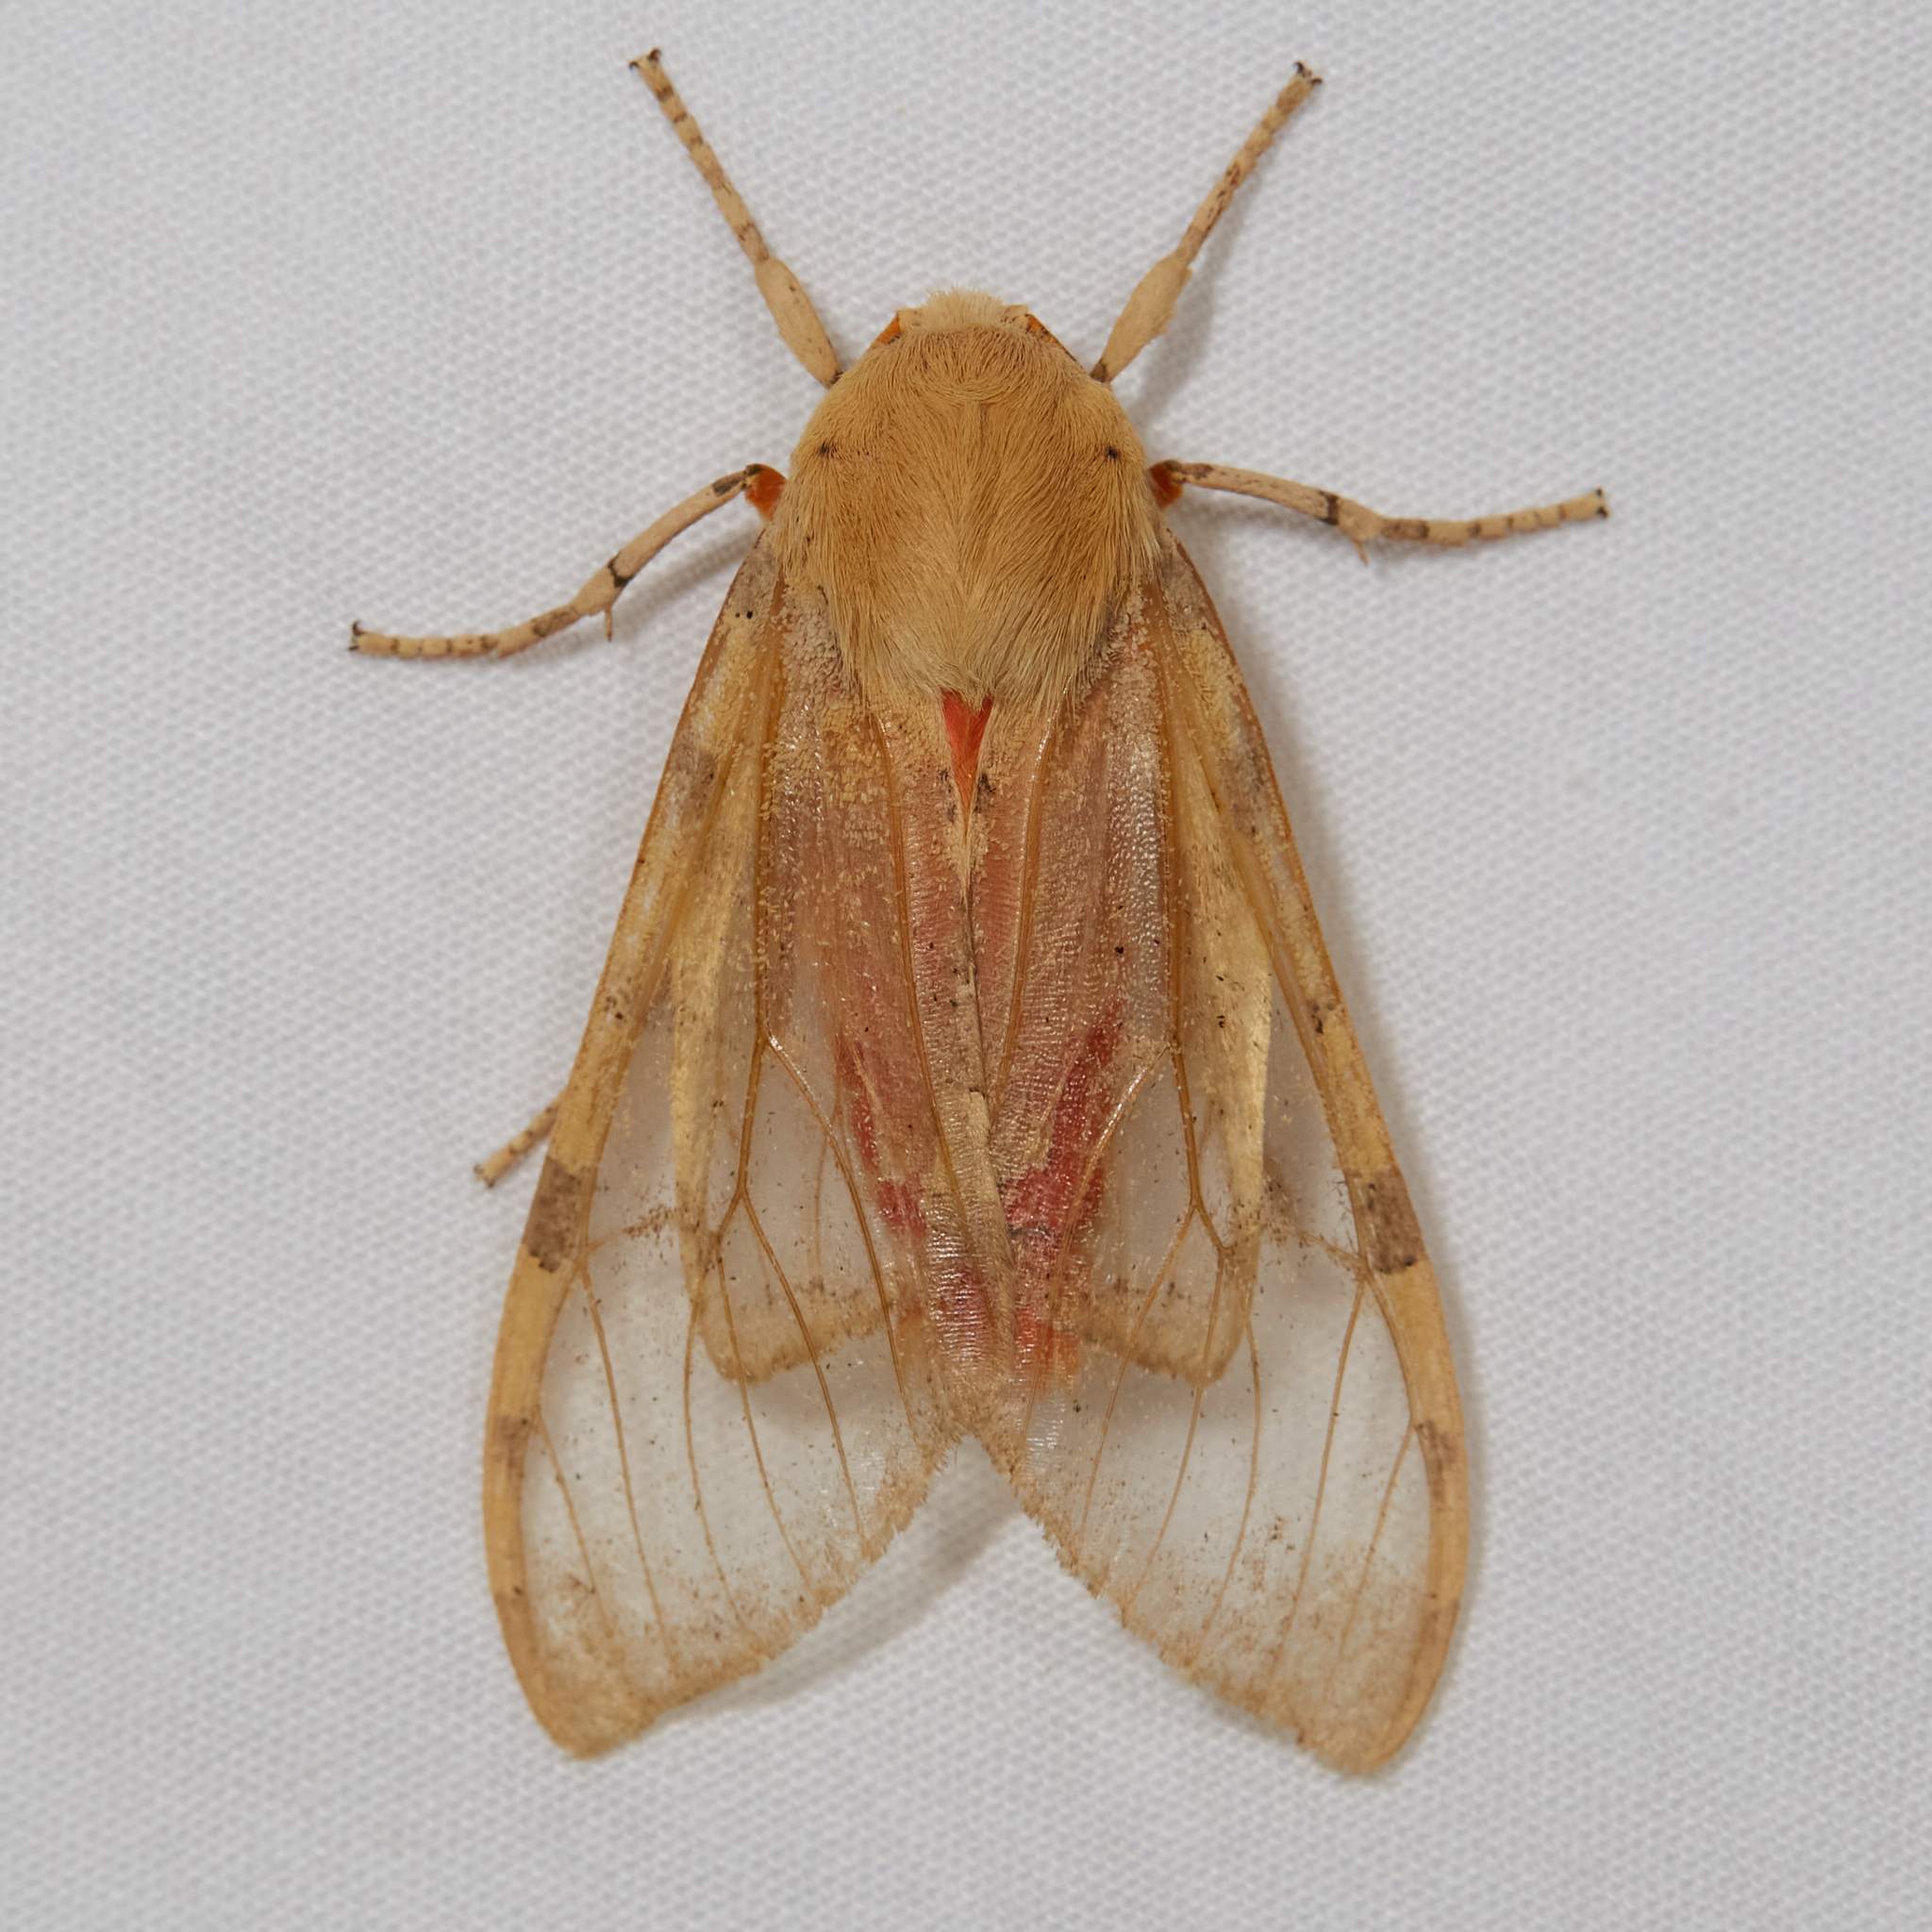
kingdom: Animalia
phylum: Arthropoda
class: Insecta
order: Lepidoptera
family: Erebidae
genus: Hemihyalea
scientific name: Hemihyalea edwardsii
